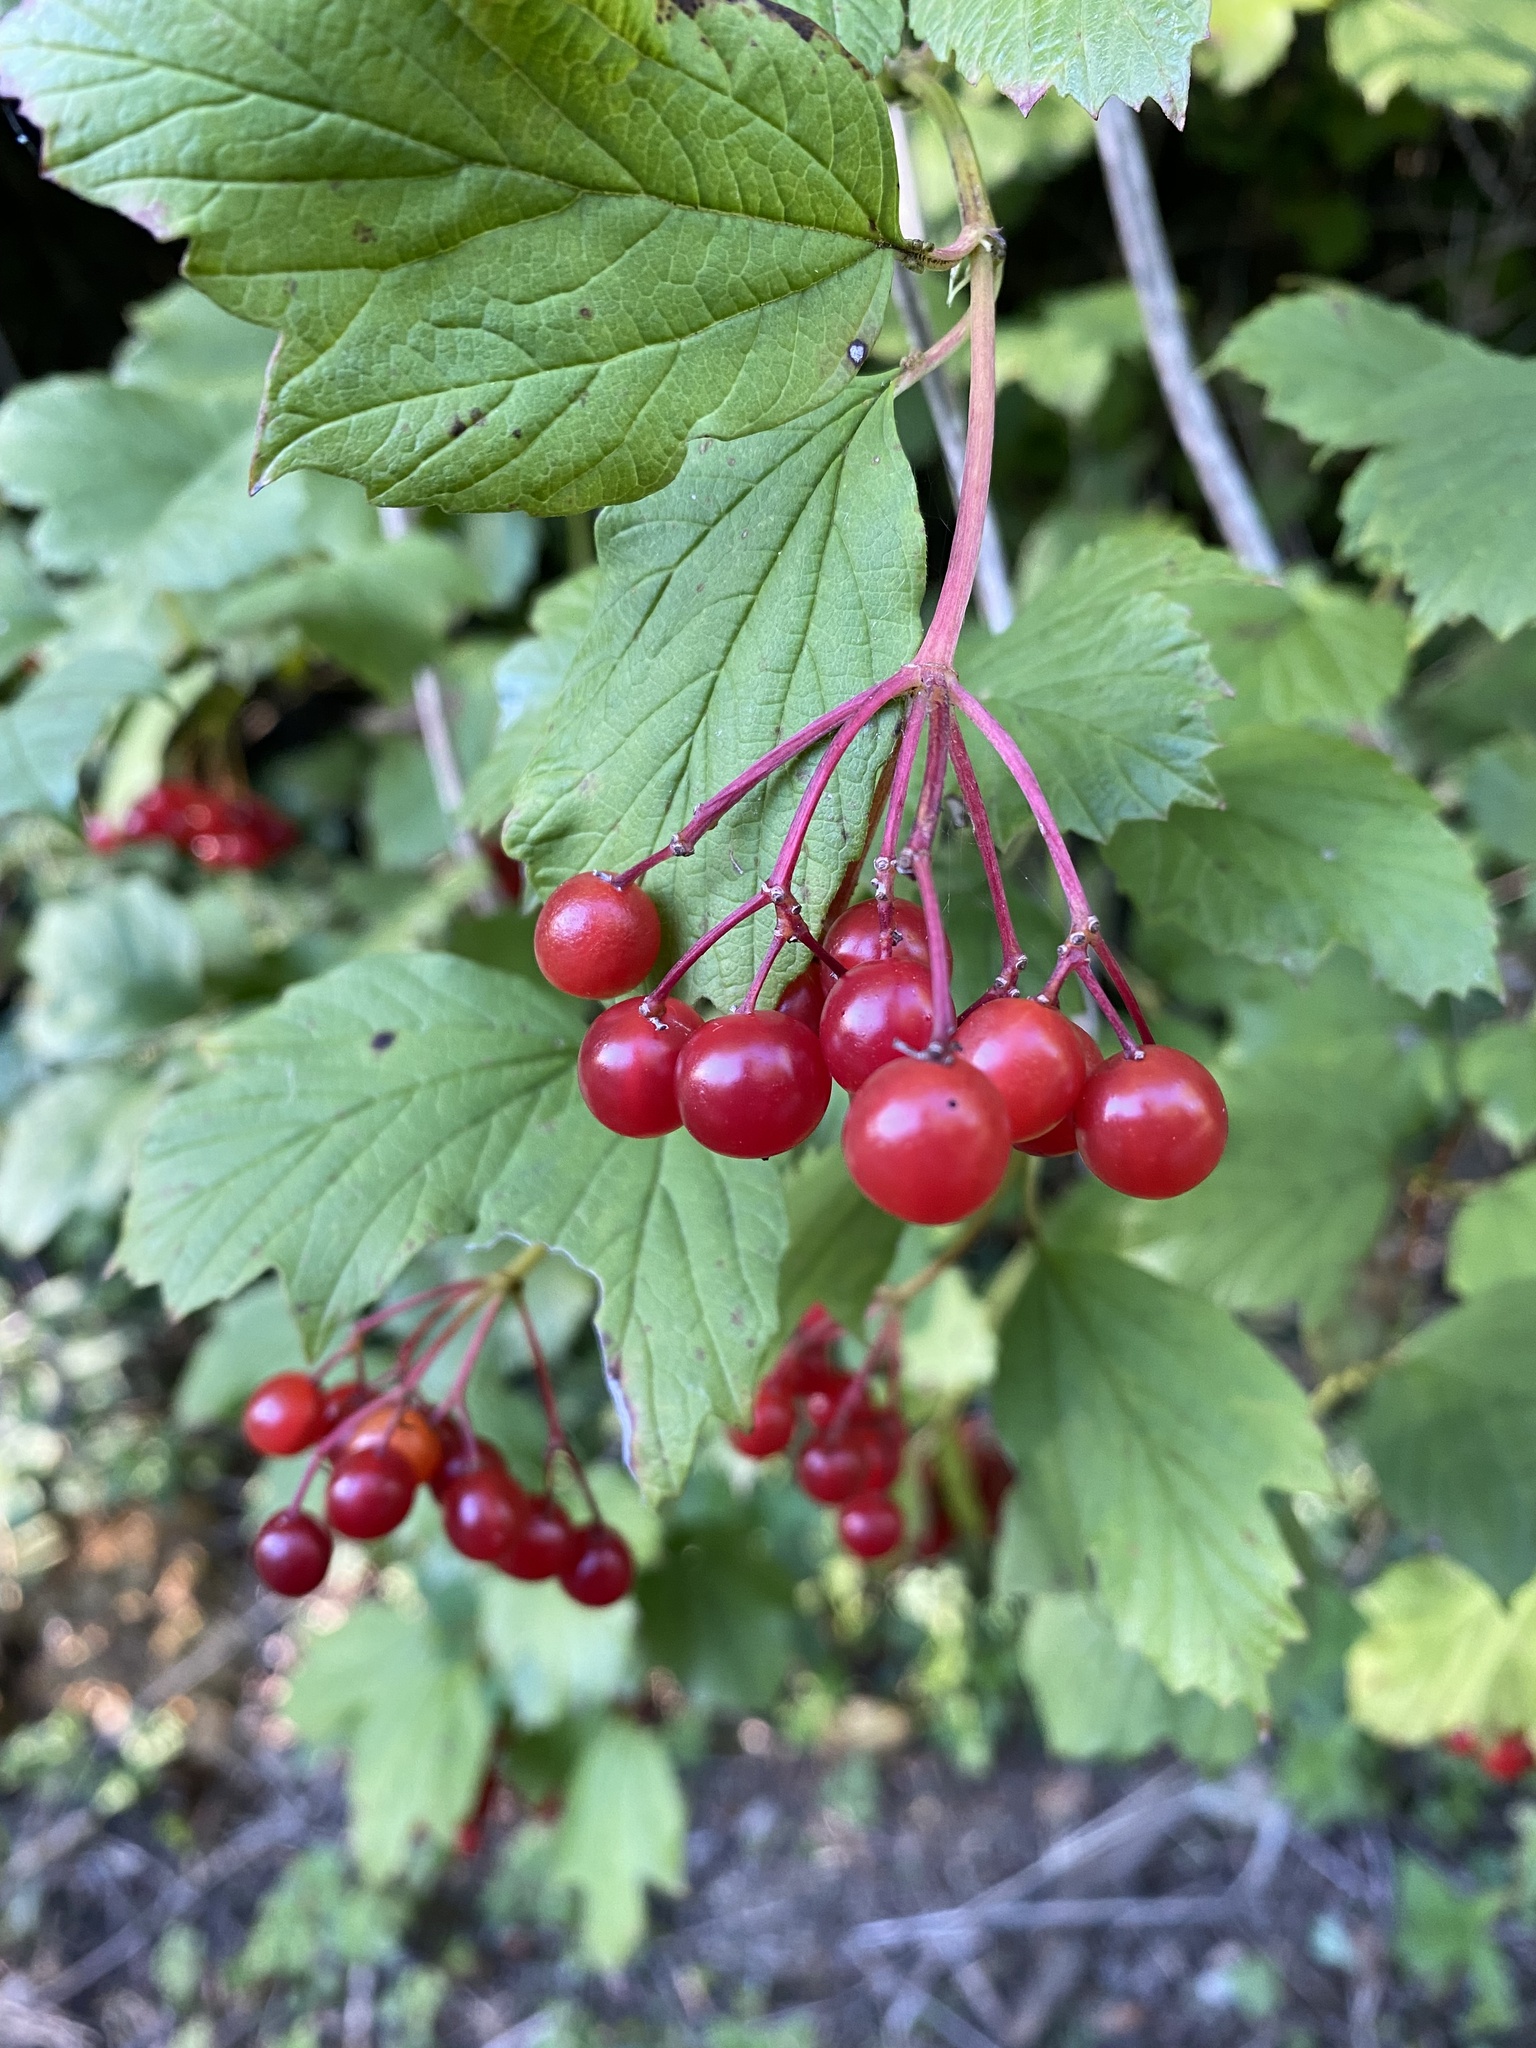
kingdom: Plantae
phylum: Tracheophyta
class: Magnoliopsida
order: Dipsacales
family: Viburnaceae
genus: Viburnum
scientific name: Viburnum opulus
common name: Guelder-rose
